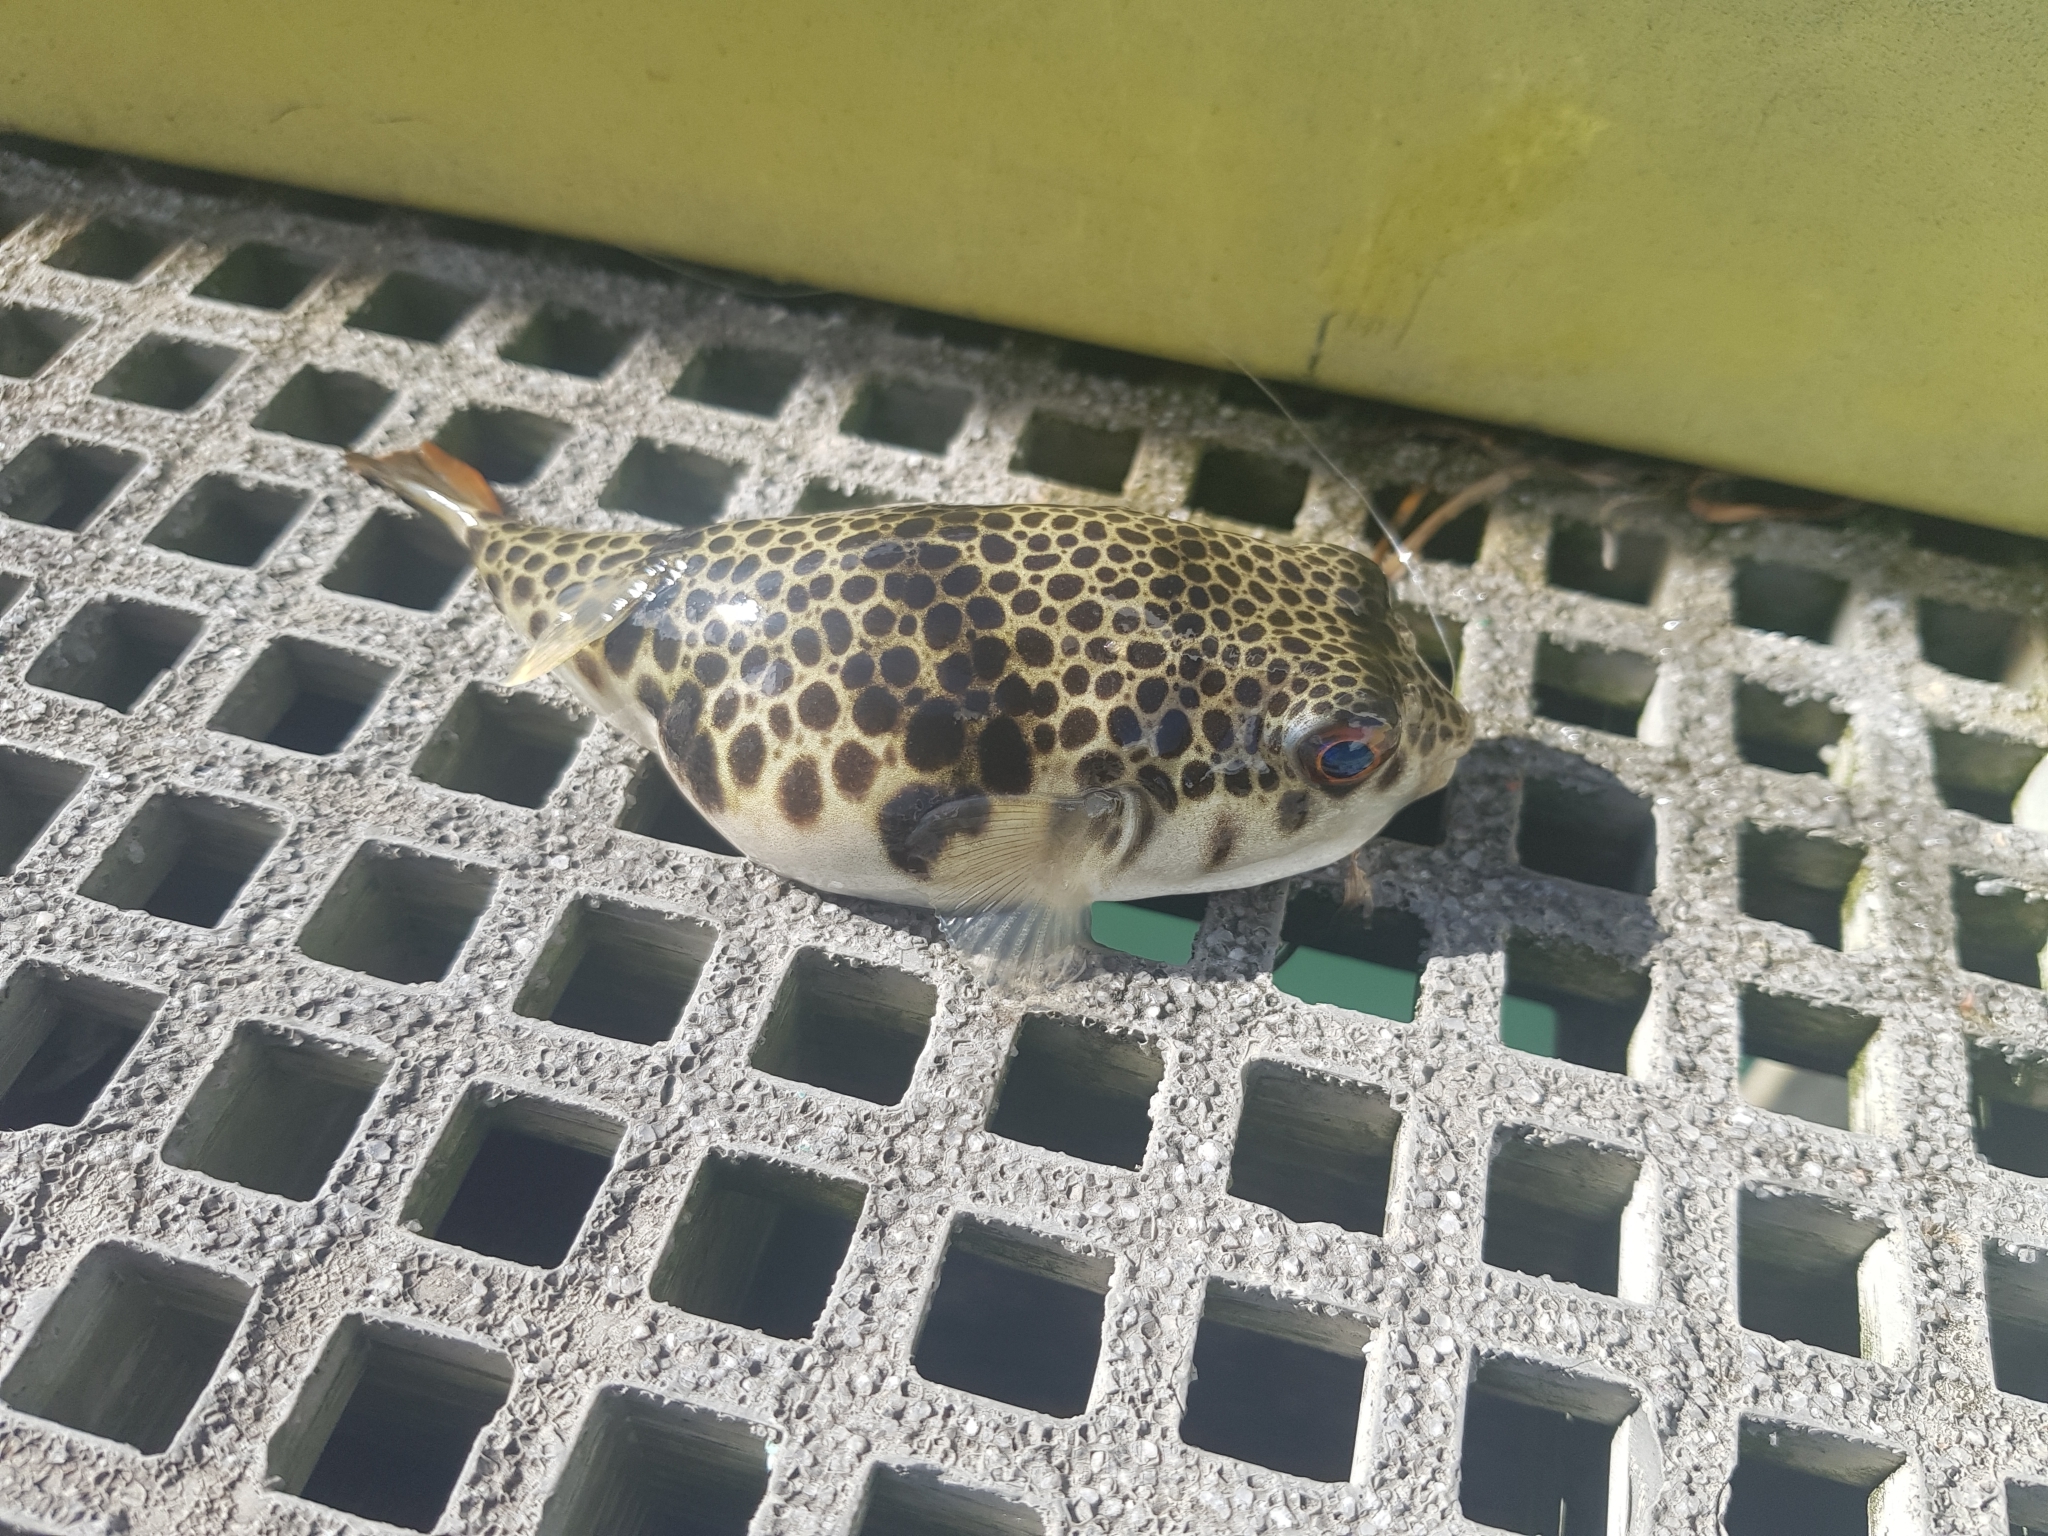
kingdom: Animalia
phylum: Chordata
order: Tetraodontiformes
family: Tetraodontidae
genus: Tetractenos
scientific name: Tetractenos glaber
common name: Smooth toadfish
